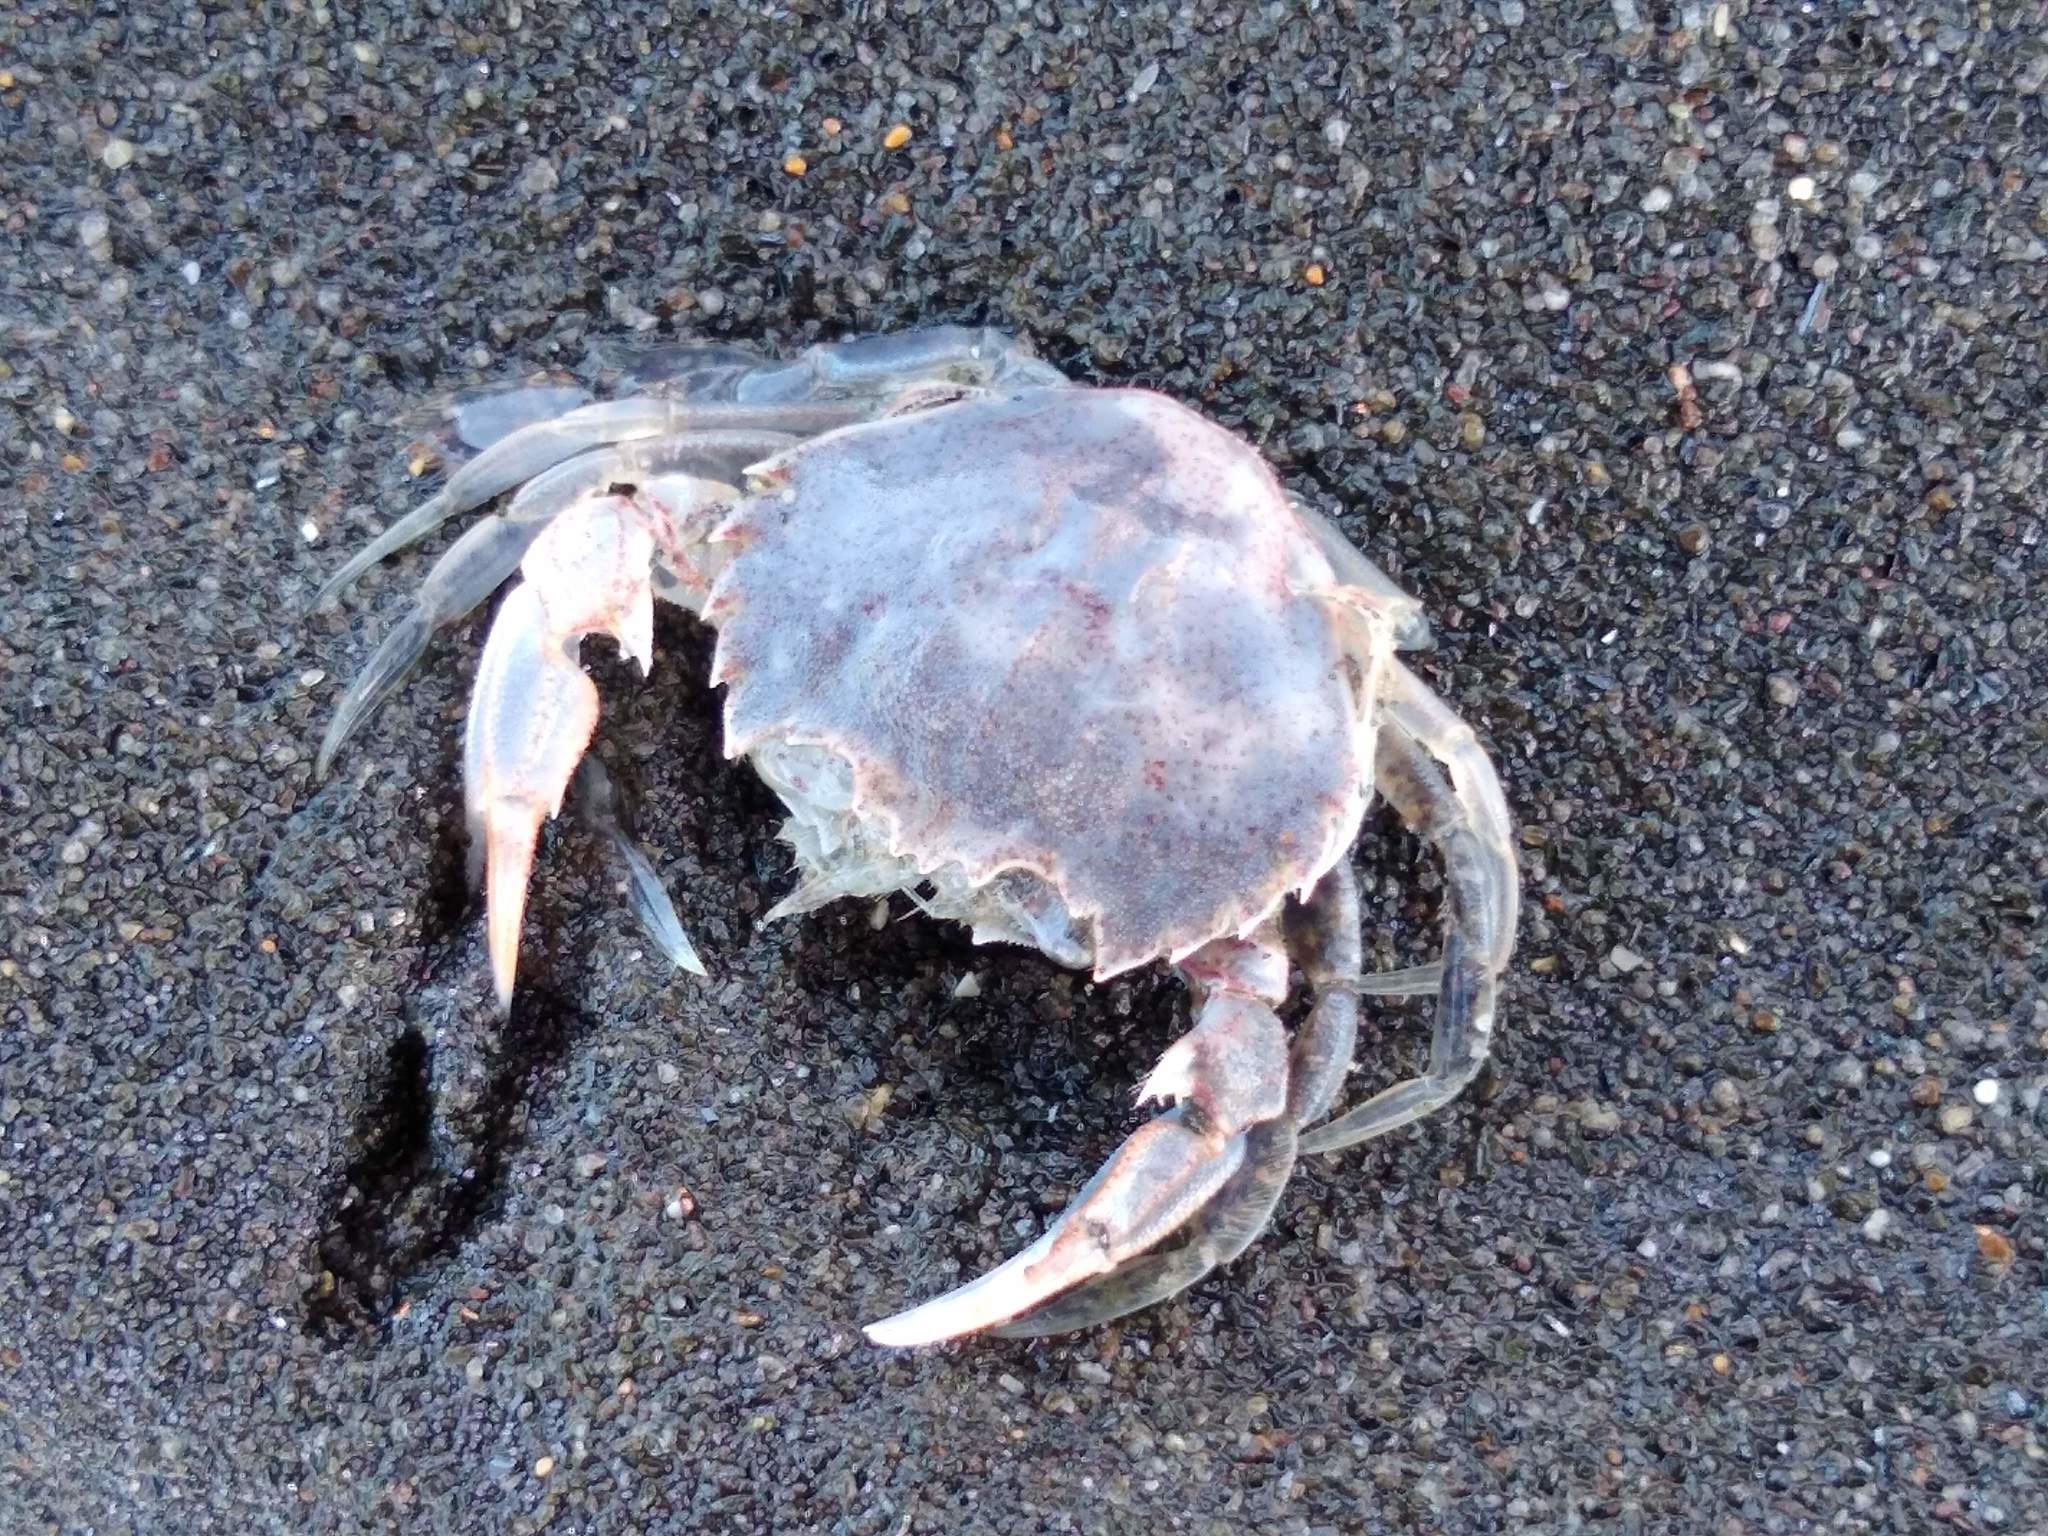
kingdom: Animalia
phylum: Arthropoda
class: Malacostraca
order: Decapoda
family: Ovalipidae
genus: Ovalipes
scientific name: Ovalipes catharus
